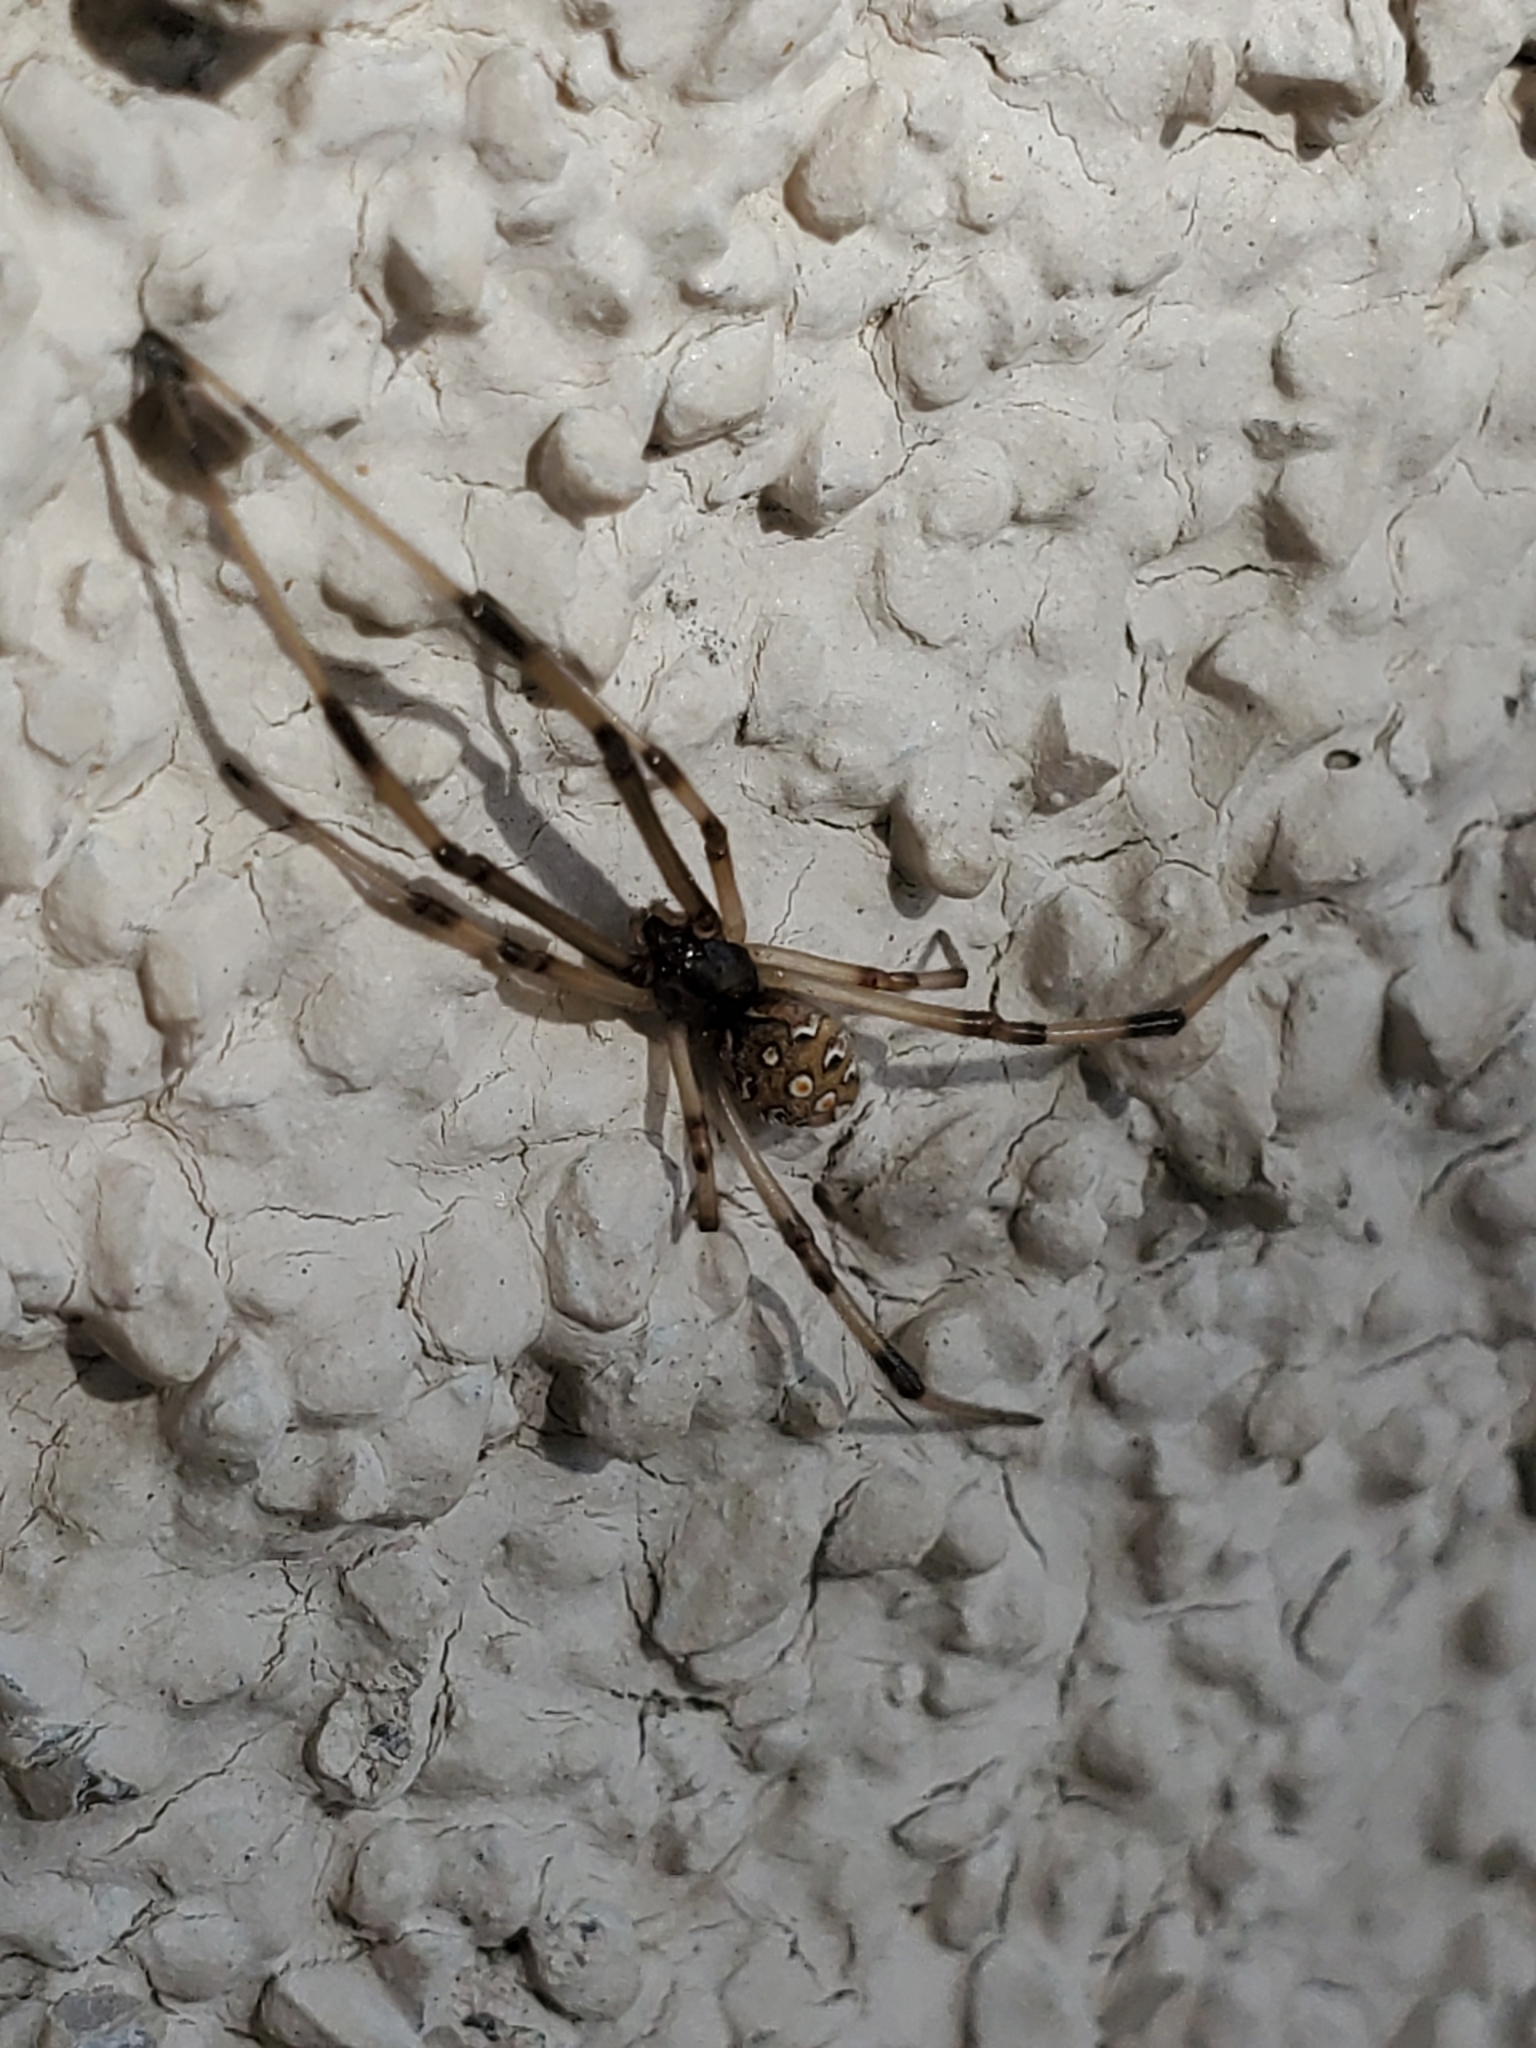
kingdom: Animalia
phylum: Arthropoda
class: Arachnida
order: Araneae
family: Theridiidae
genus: Latrodectus
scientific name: Latrodectus geometricus
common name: Brown widow spider
